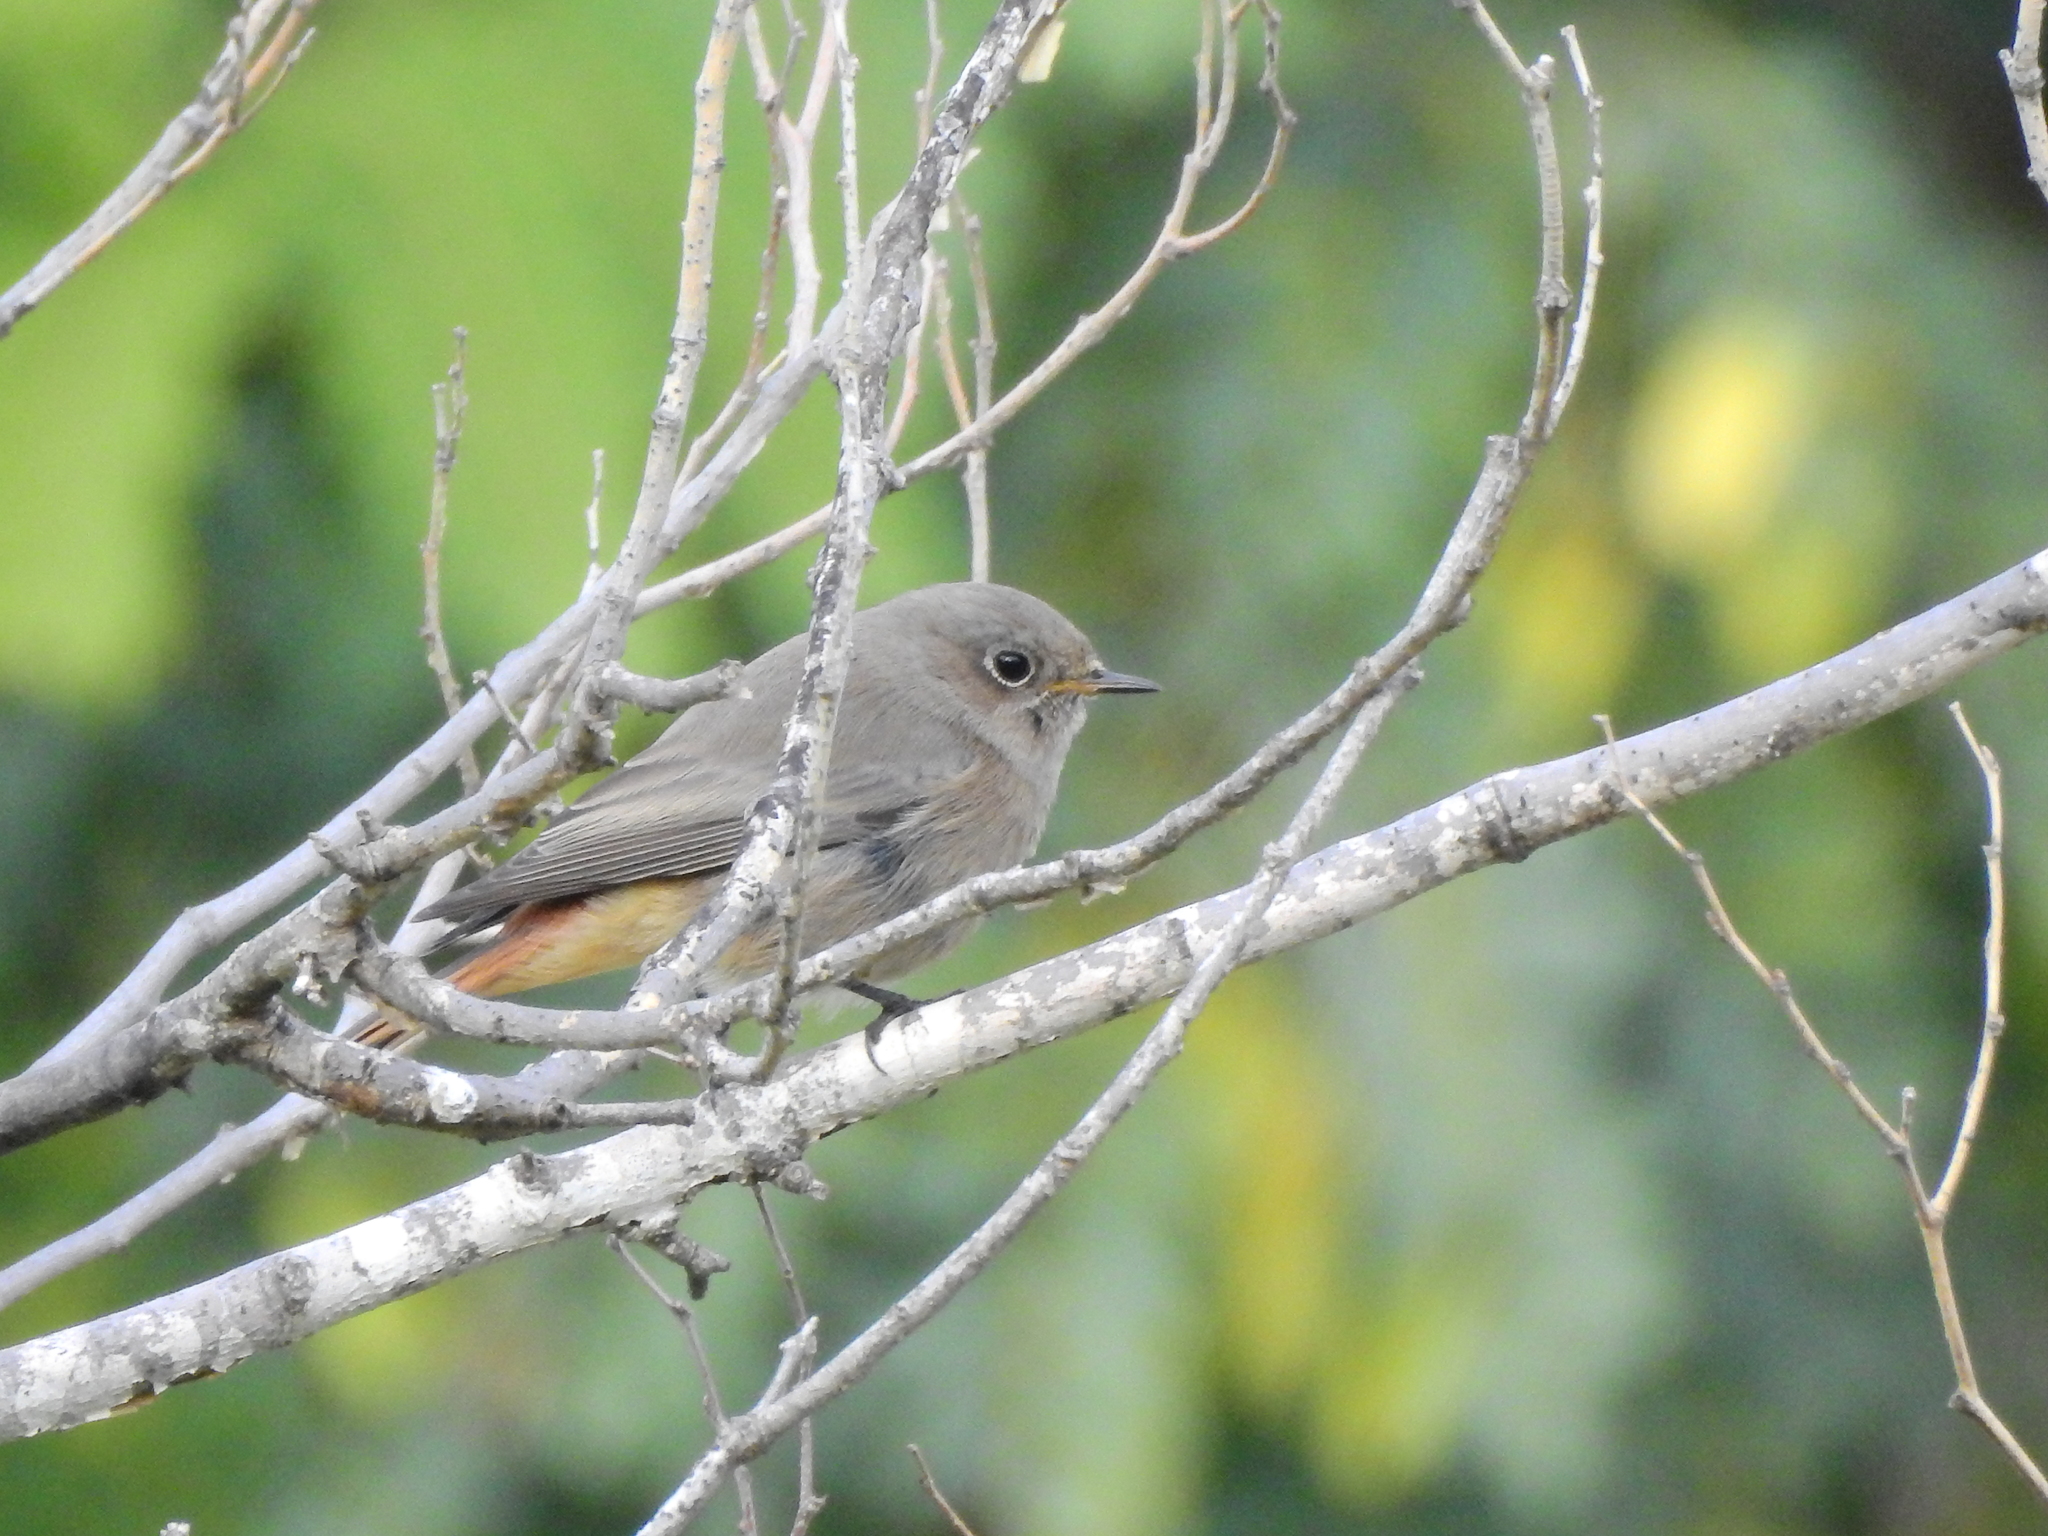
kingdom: Animalia
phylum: Chordata
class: Aves
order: Passeriformes
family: Muscicapidae
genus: Phoenicurus
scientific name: Phoenicurus ochruros
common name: Black redstart
